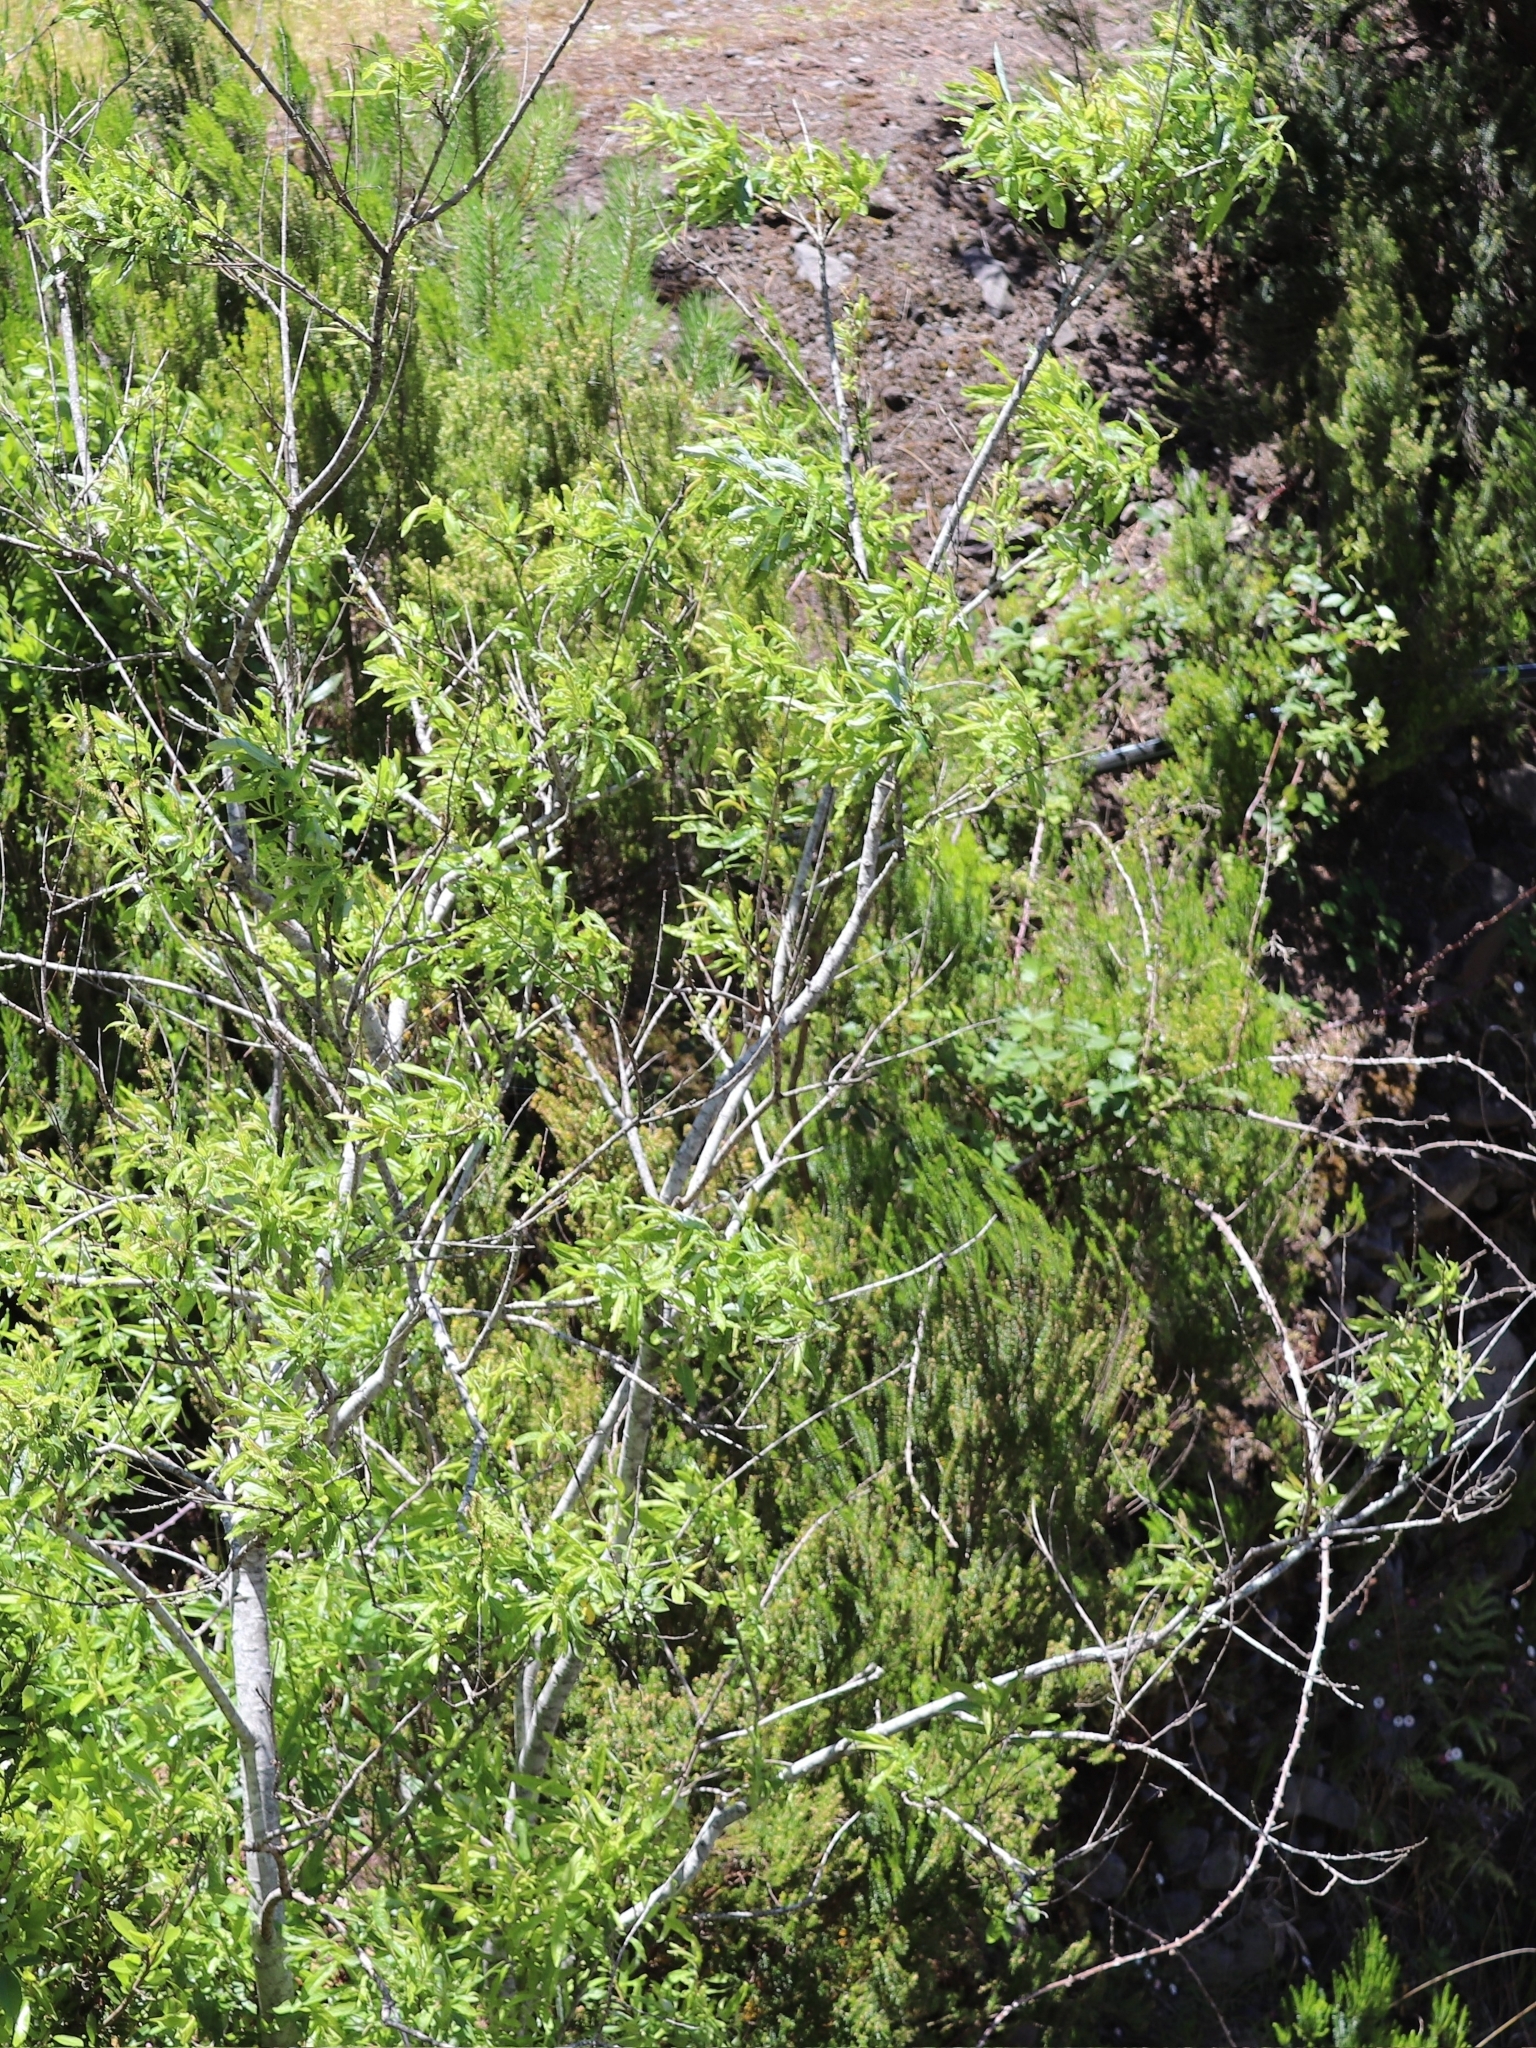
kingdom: Plantae
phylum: Tracheophyta
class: Magnoliopsida
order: Malpighiales
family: Salicaceae
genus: Salix
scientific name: Salix canariensis
